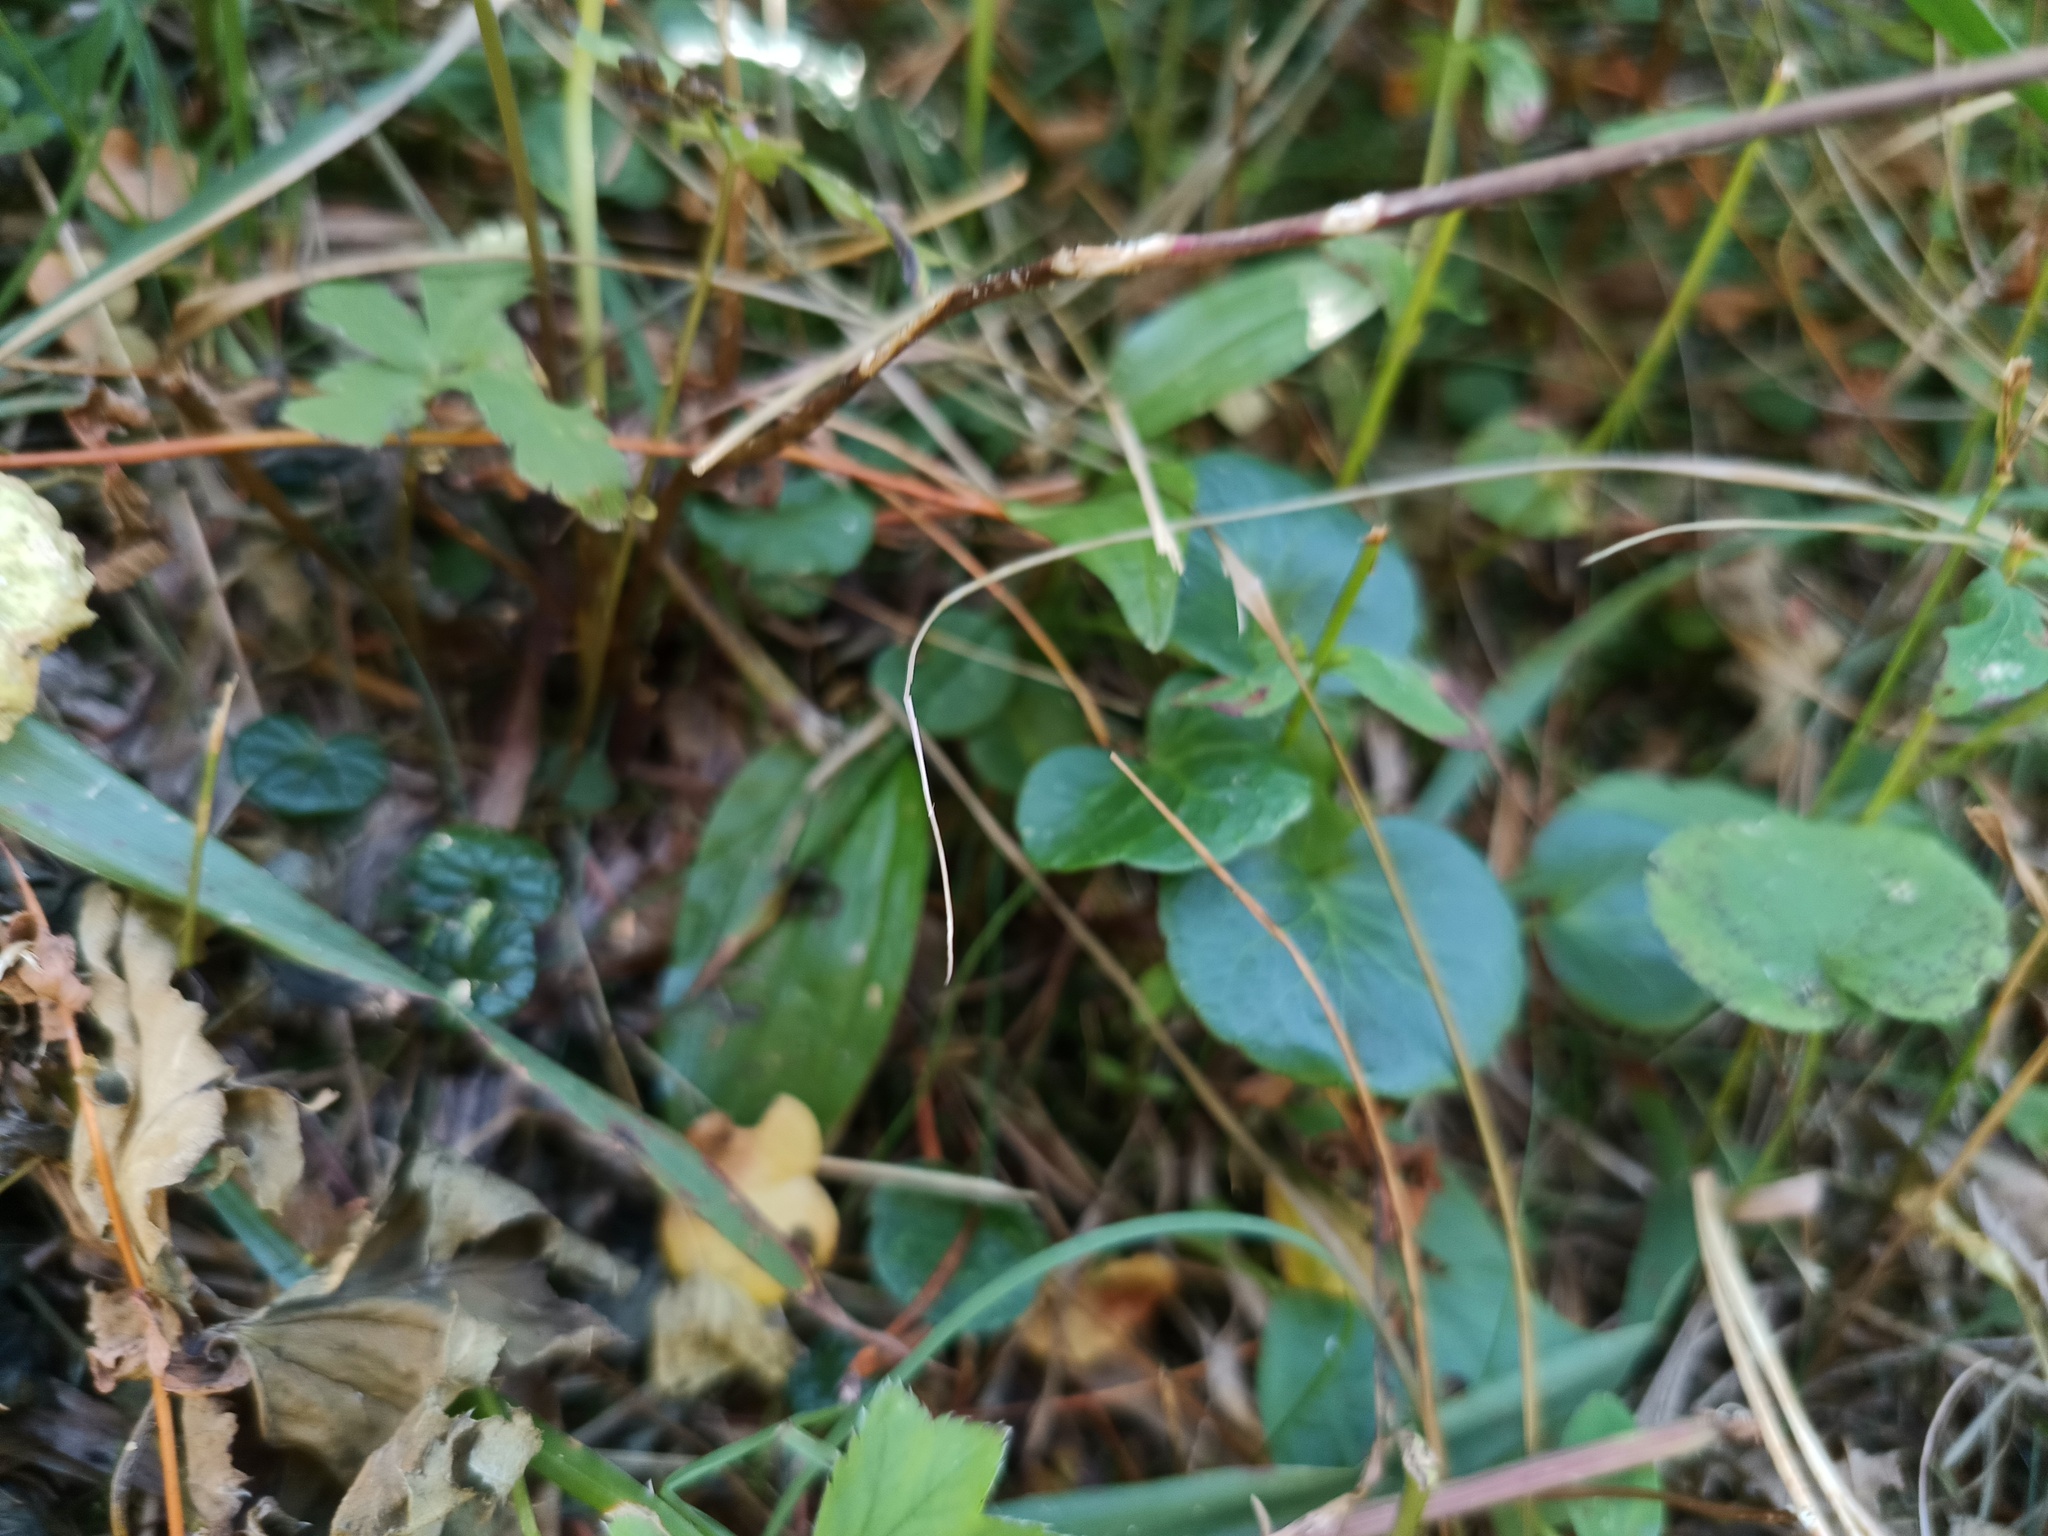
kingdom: Plantae
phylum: Tracheophyta
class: Magnoliopsida
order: Ericales
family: Primulaceae
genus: Soldanella
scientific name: Soldanella alpina
